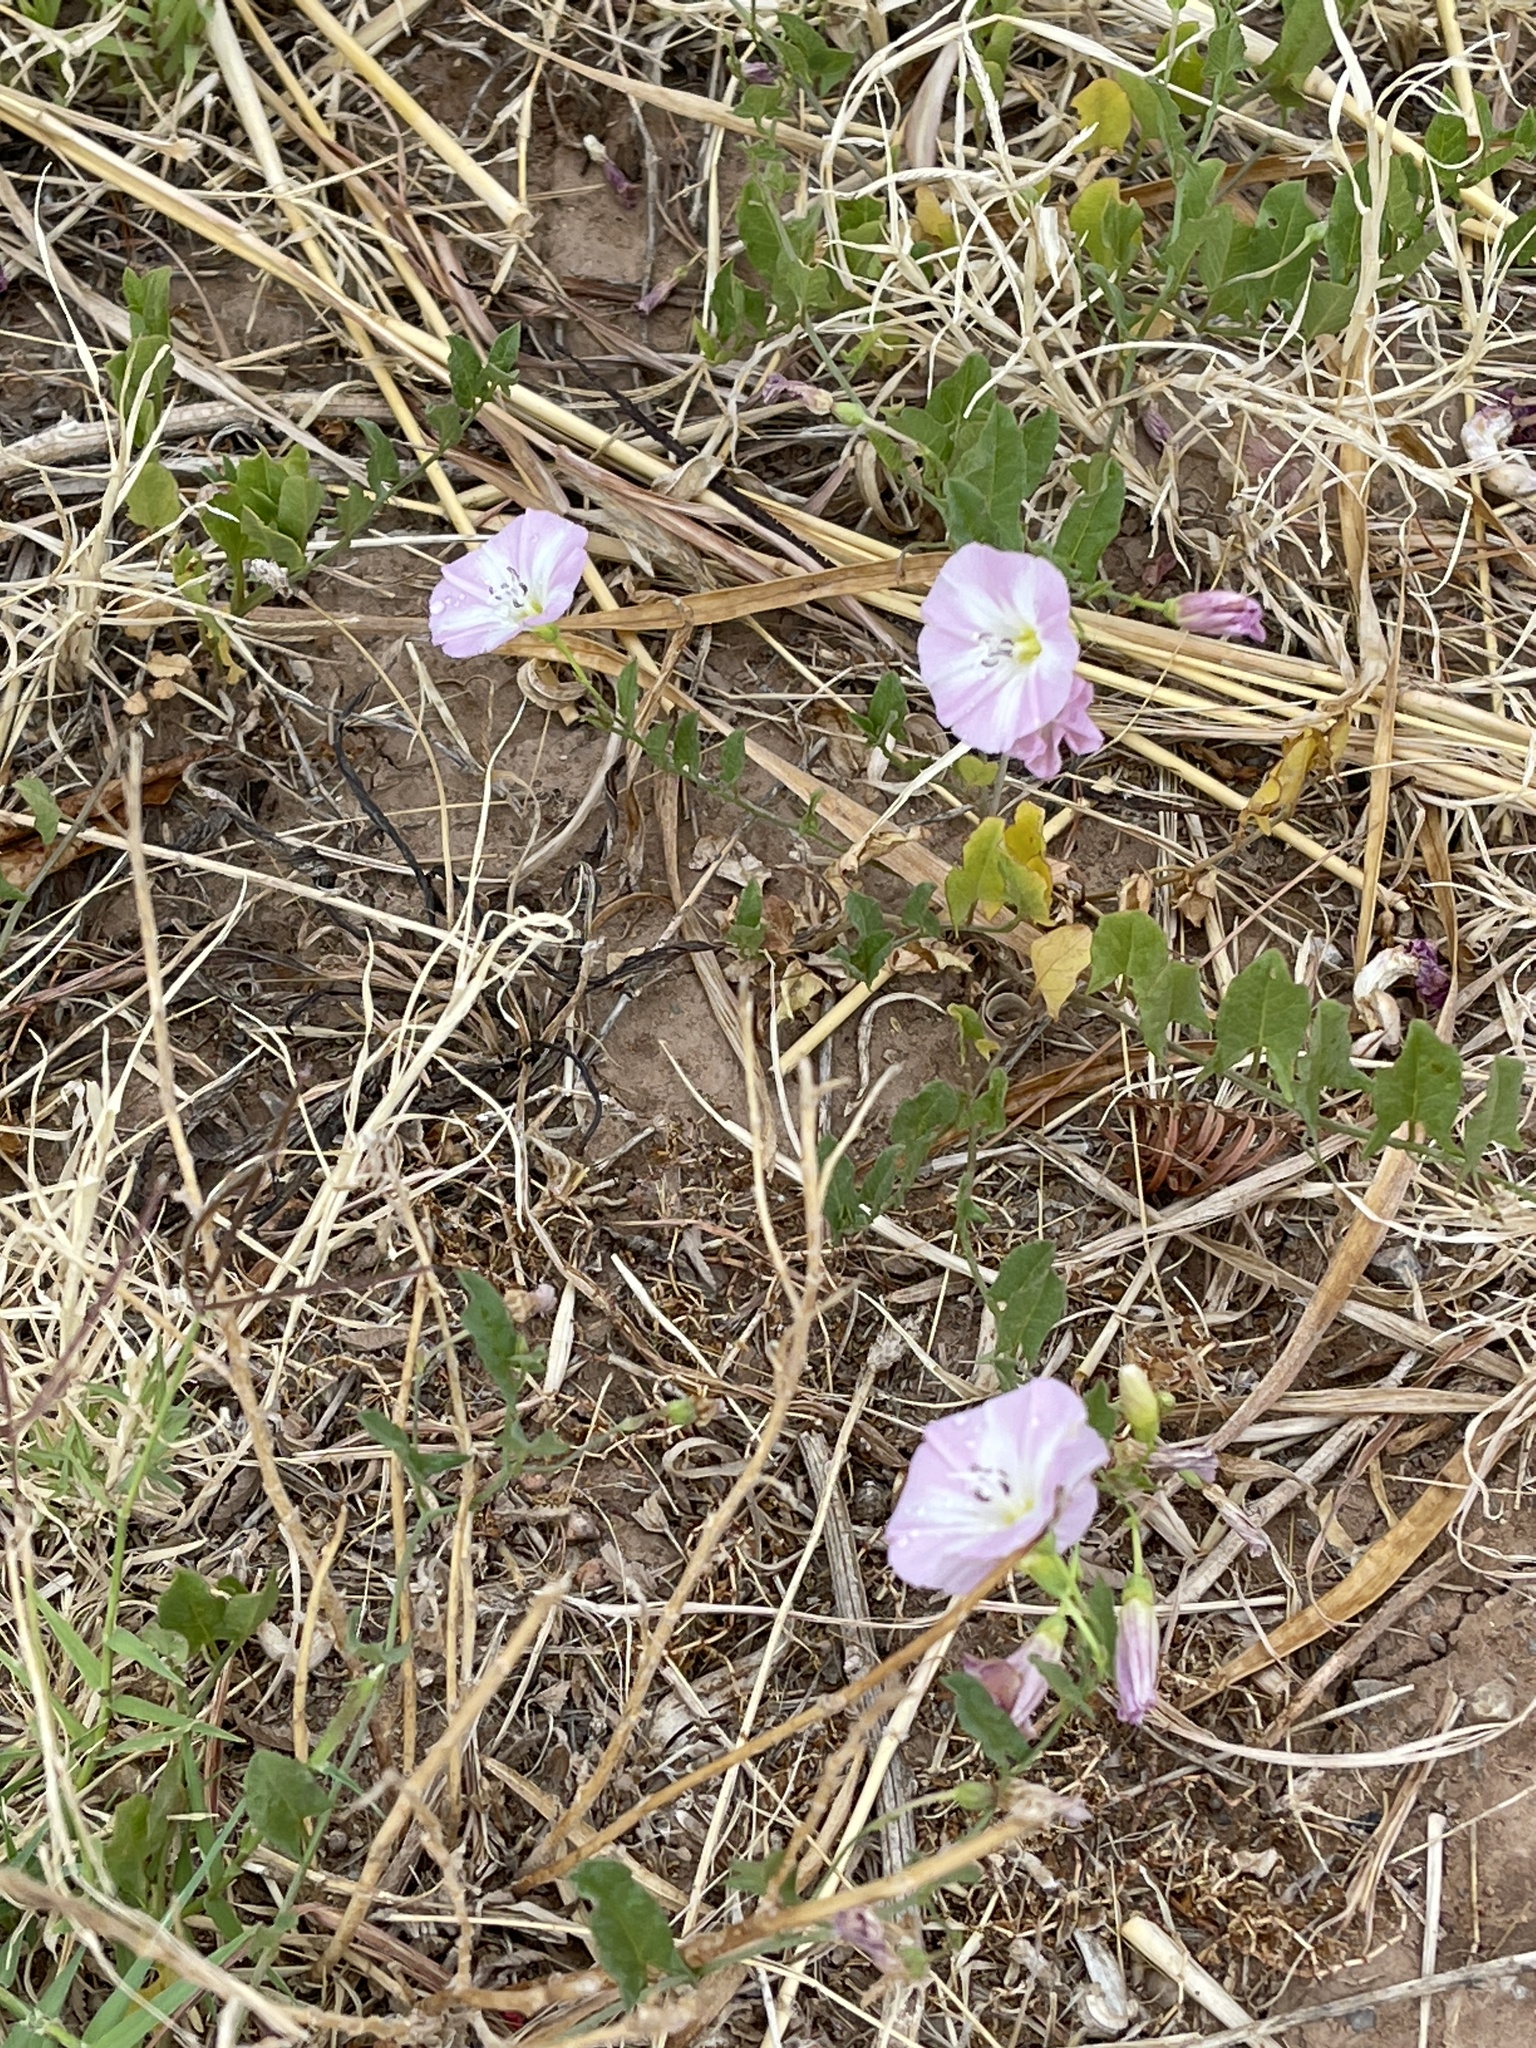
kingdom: Plantae
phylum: Tracheophyta
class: Magnoliopsida
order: Solanales
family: Convolvulaceae
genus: Convolvulus
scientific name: Convolvulus arvensis
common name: Field bindweed
